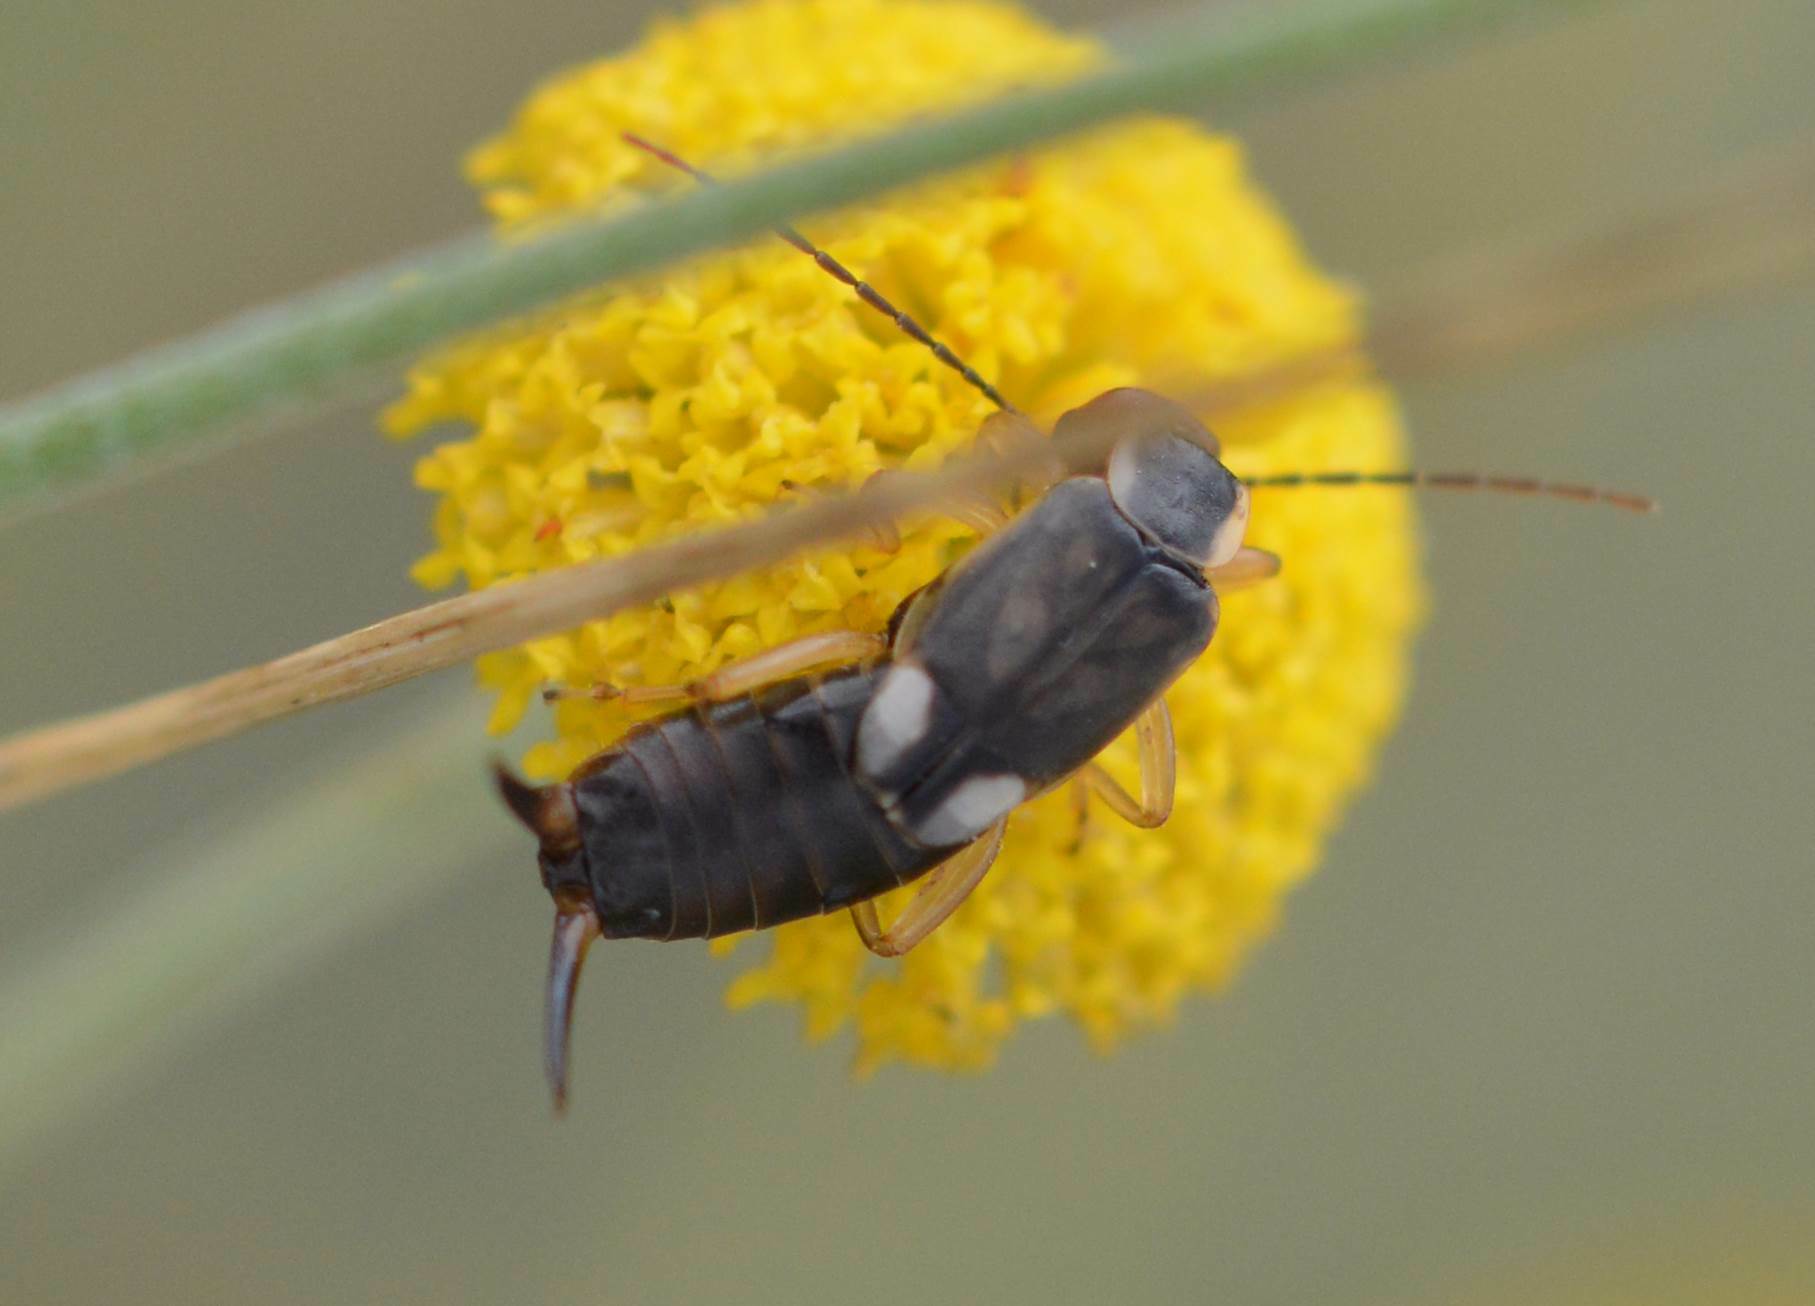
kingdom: Animalia
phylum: Arthropoda
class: Insecta
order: Dermaptera
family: Forficulidae
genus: Forficula
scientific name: Forficula
